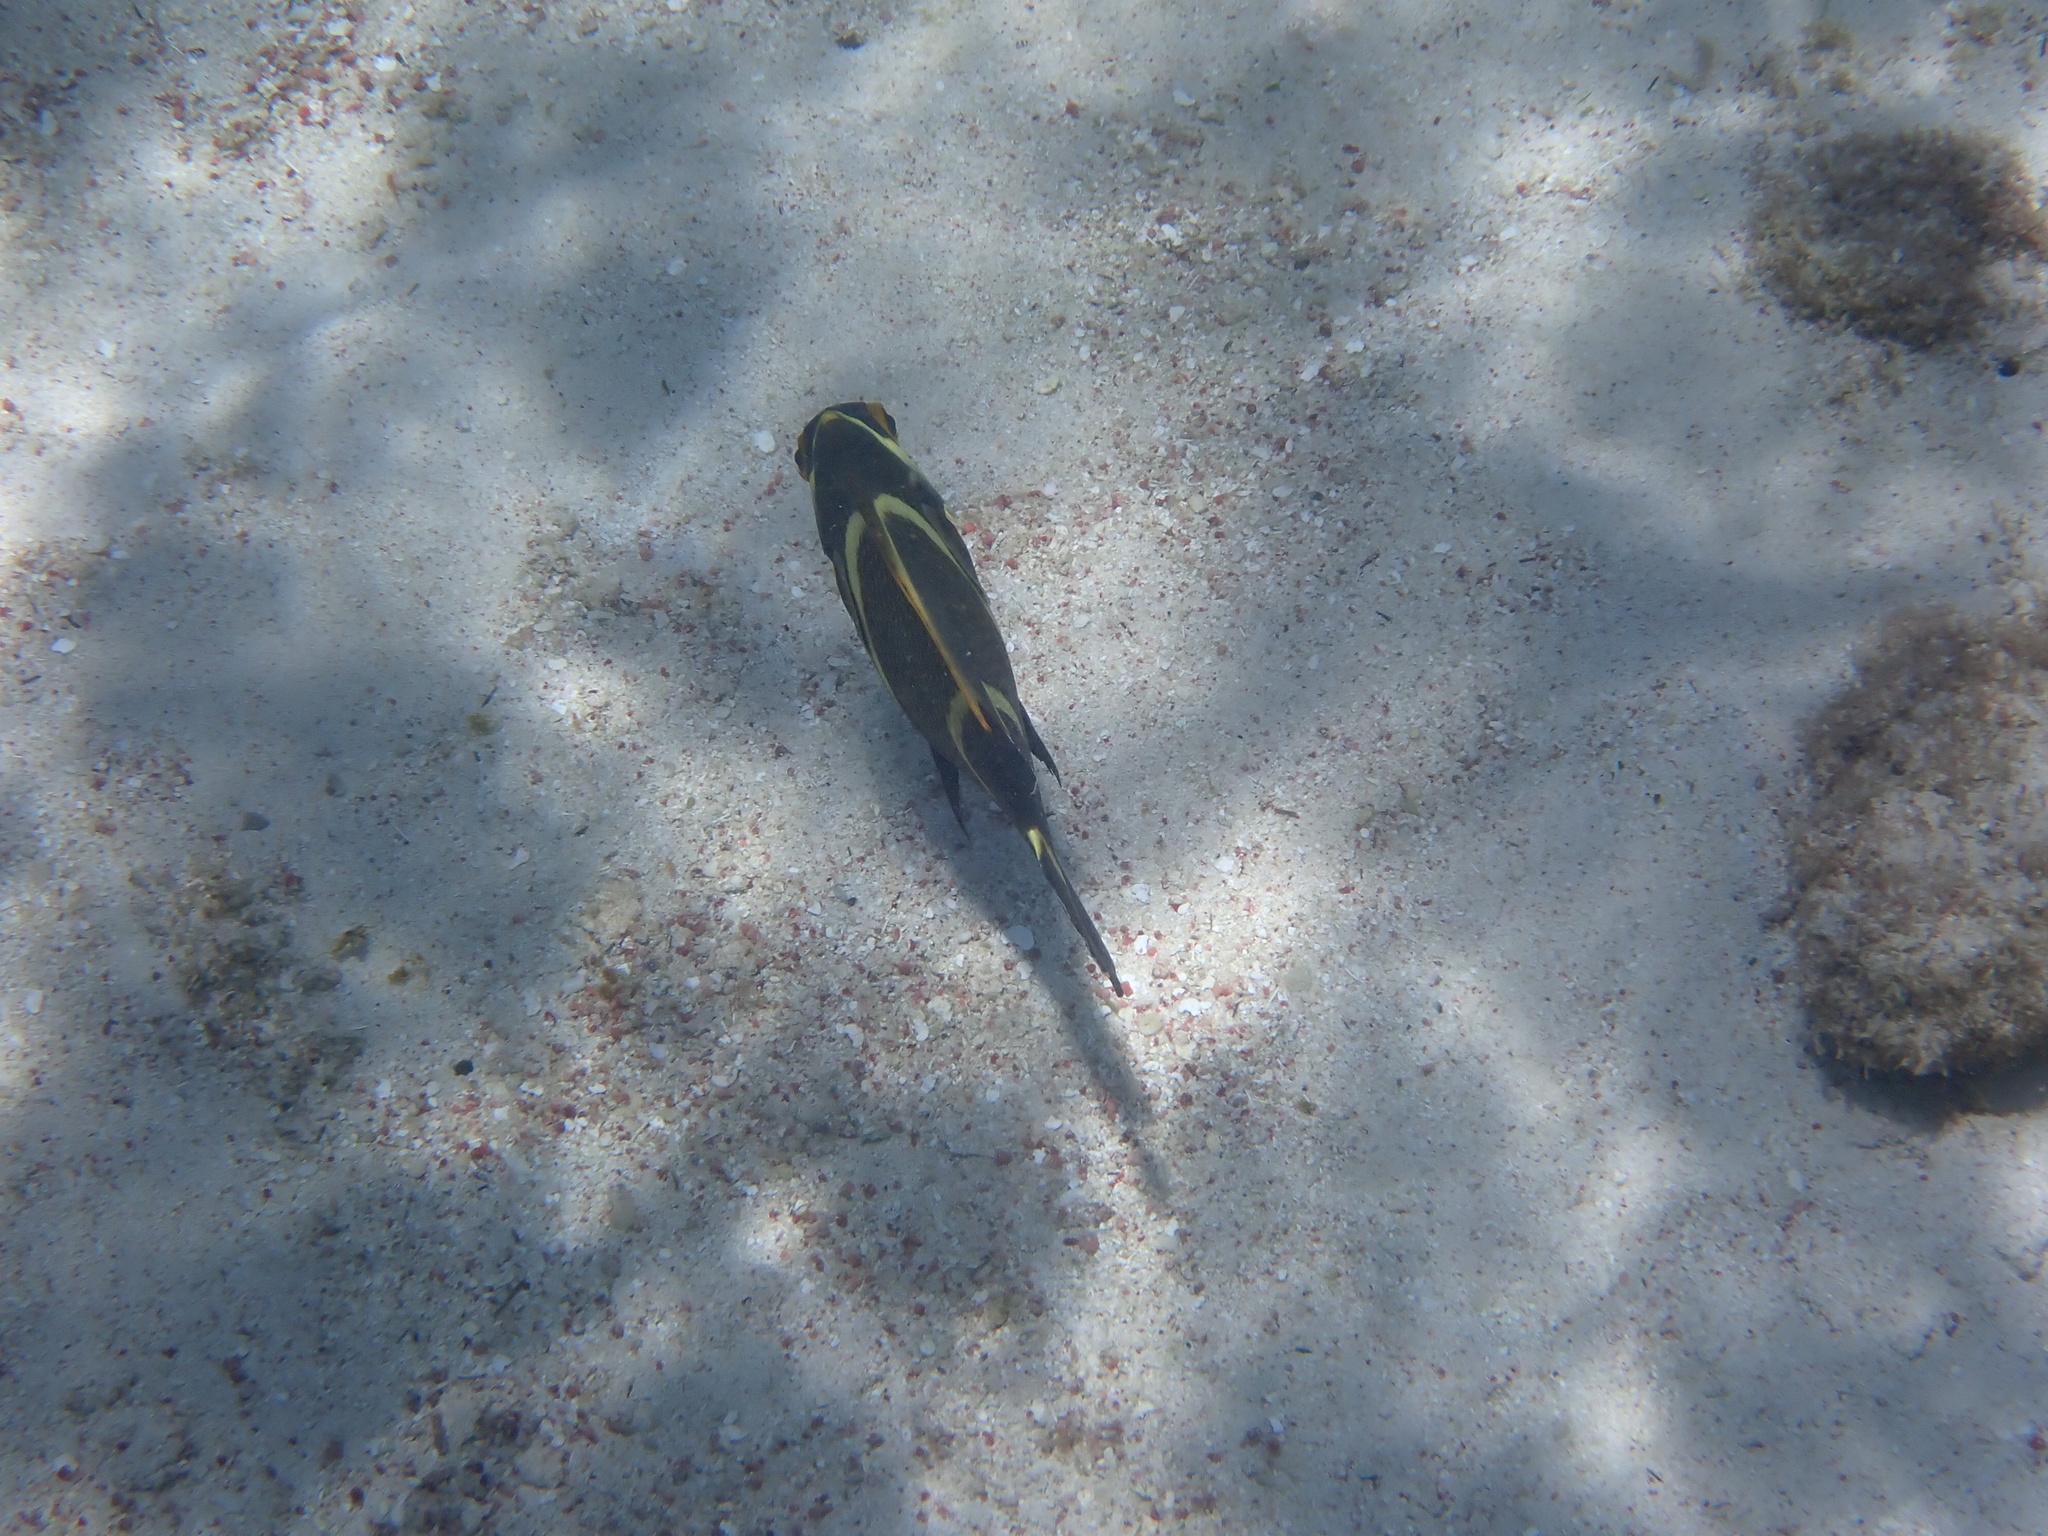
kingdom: Animalia
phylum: Chordata
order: Perciformes
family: Pomacanthidae
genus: Pomacanthus
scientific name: Pomacanthus paru
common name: French angelfish
